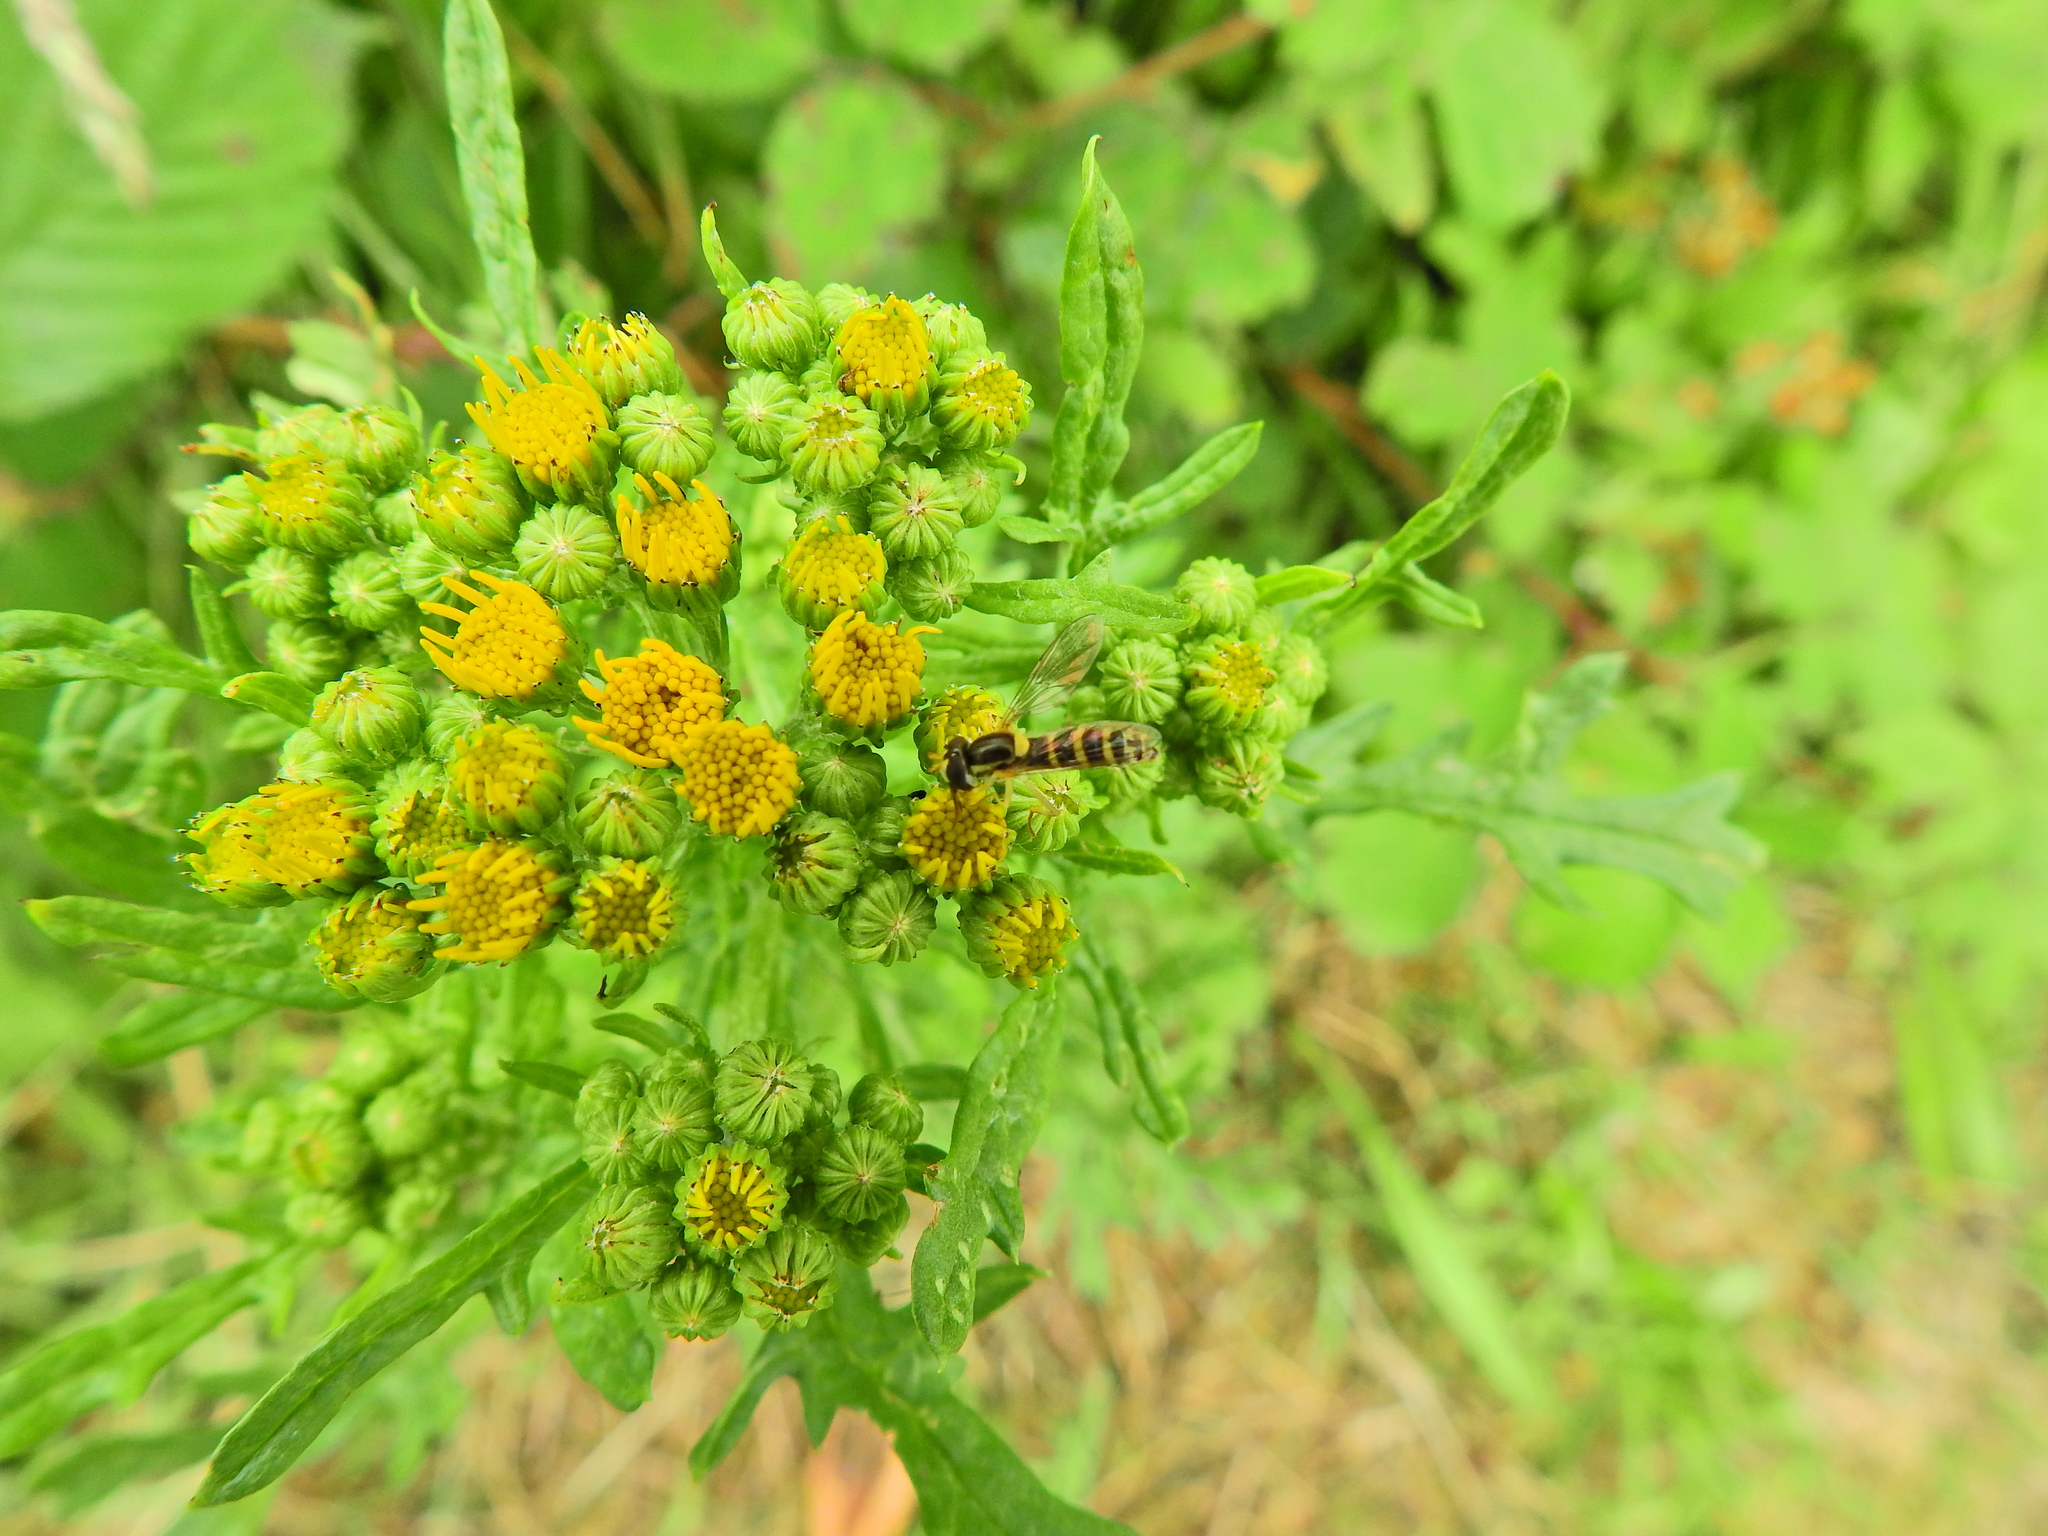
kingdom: Animalia
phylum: Arthropoda
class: Insecta
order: Diptera
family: Syrphidae
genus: Sphaerophoria
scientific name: Sphaerophoria
